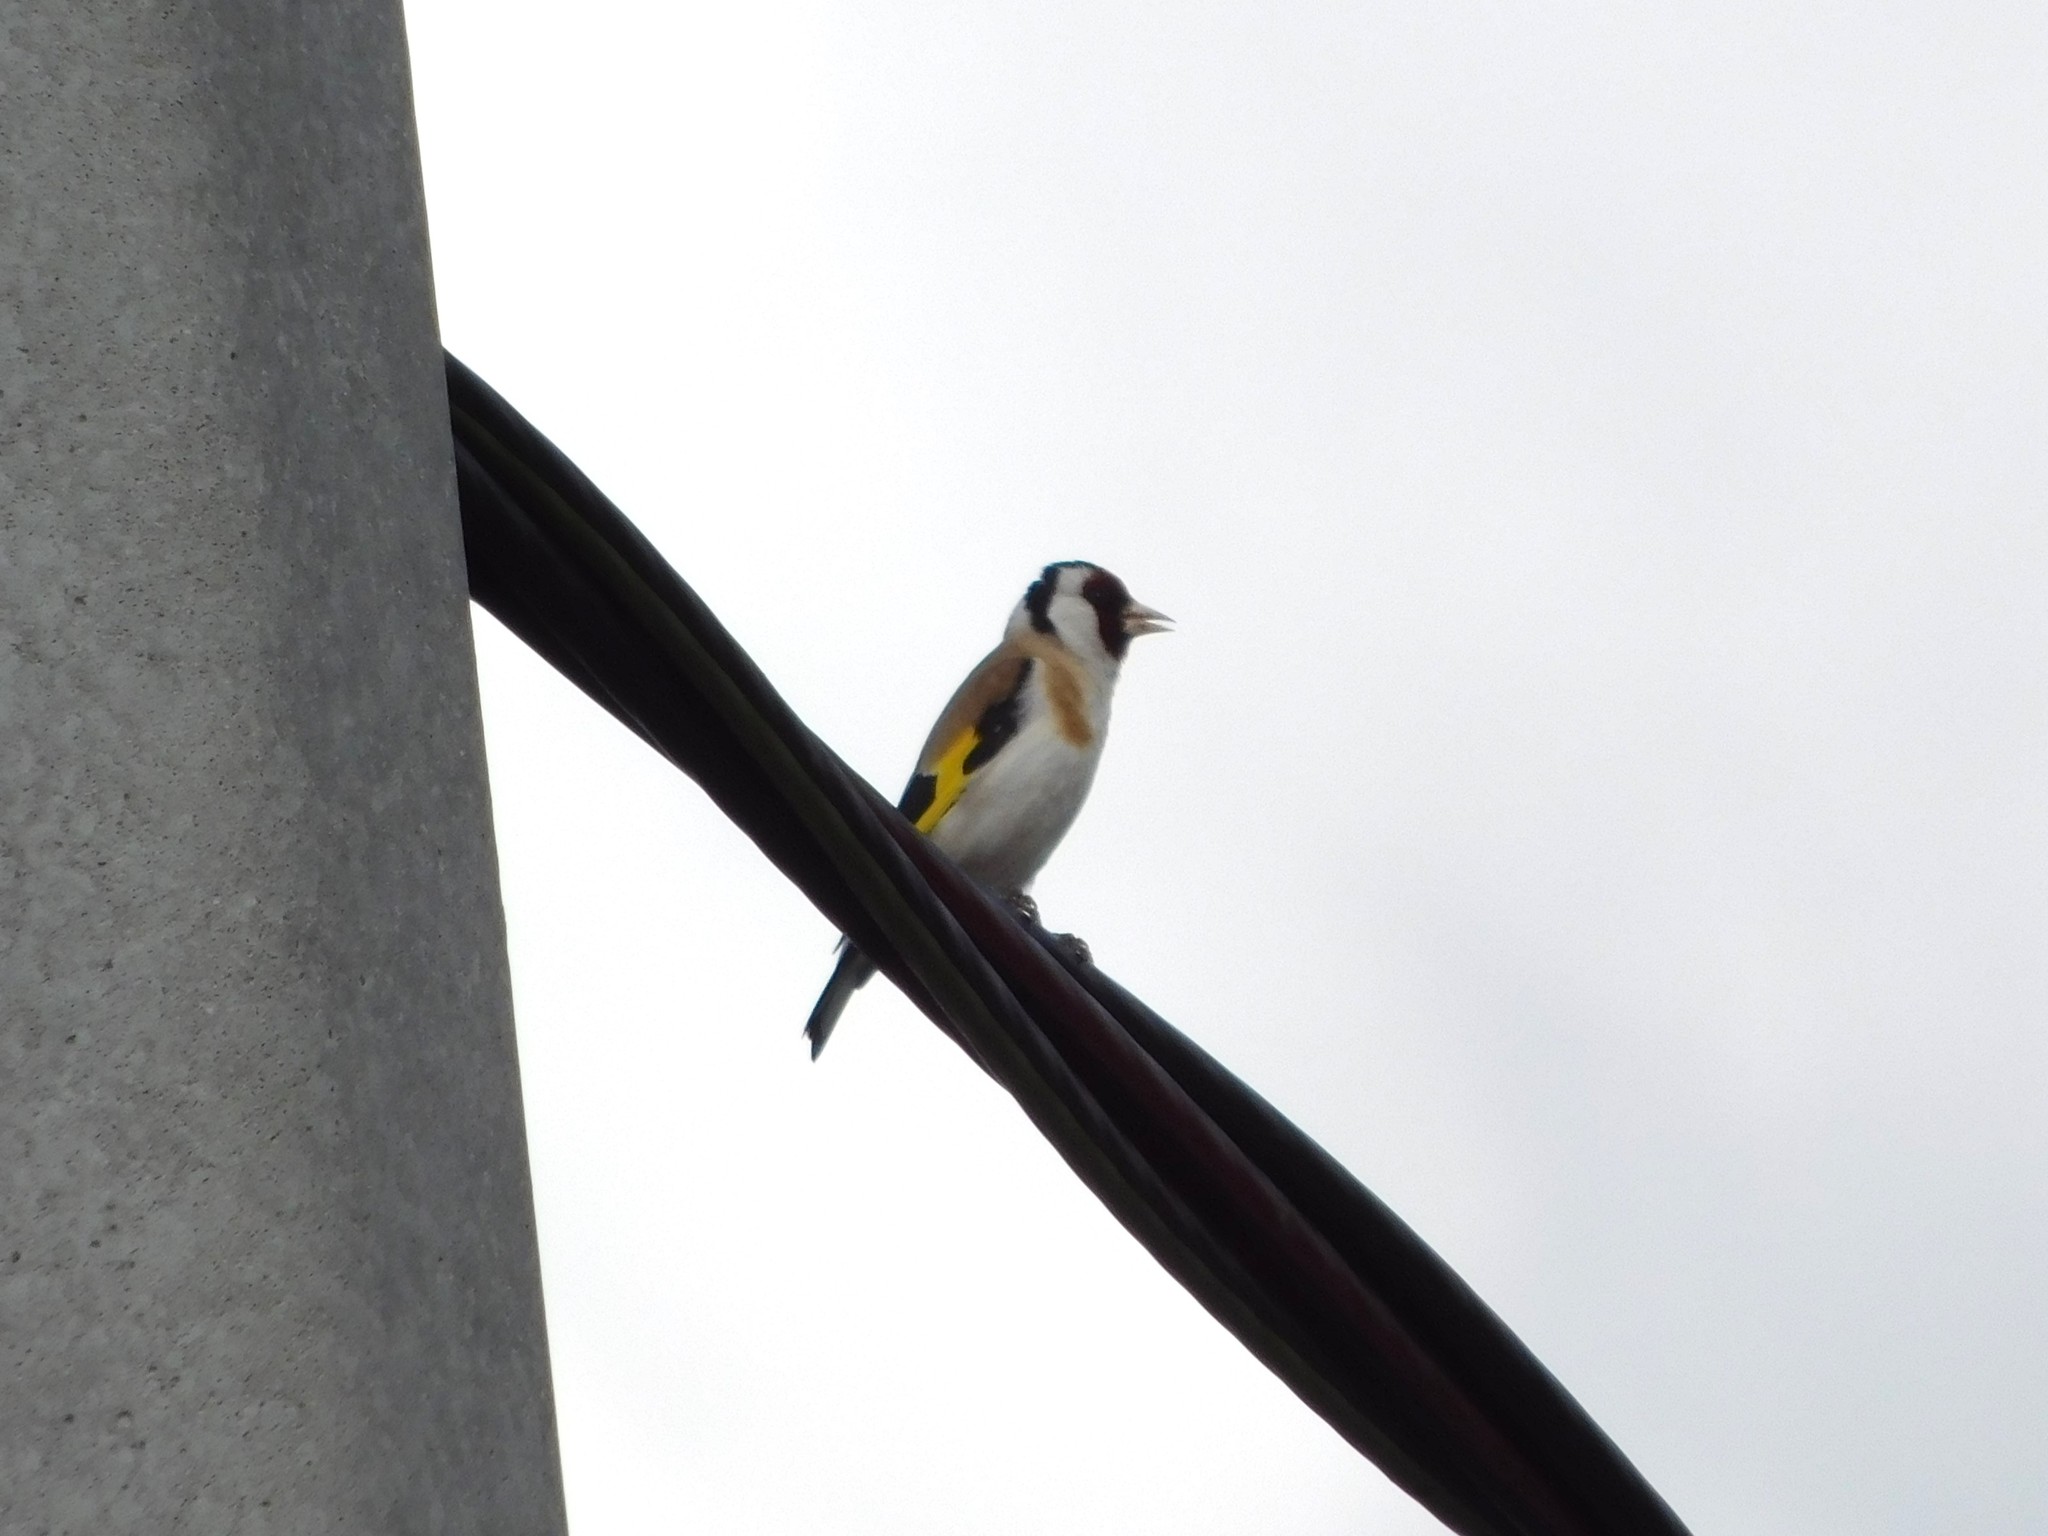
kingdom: Animalia
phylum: Chordata
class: Aves
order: Passeriformes
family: Fringillidae
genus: Carduelis
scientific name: Carduelis carduelis
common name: European goldfinch
